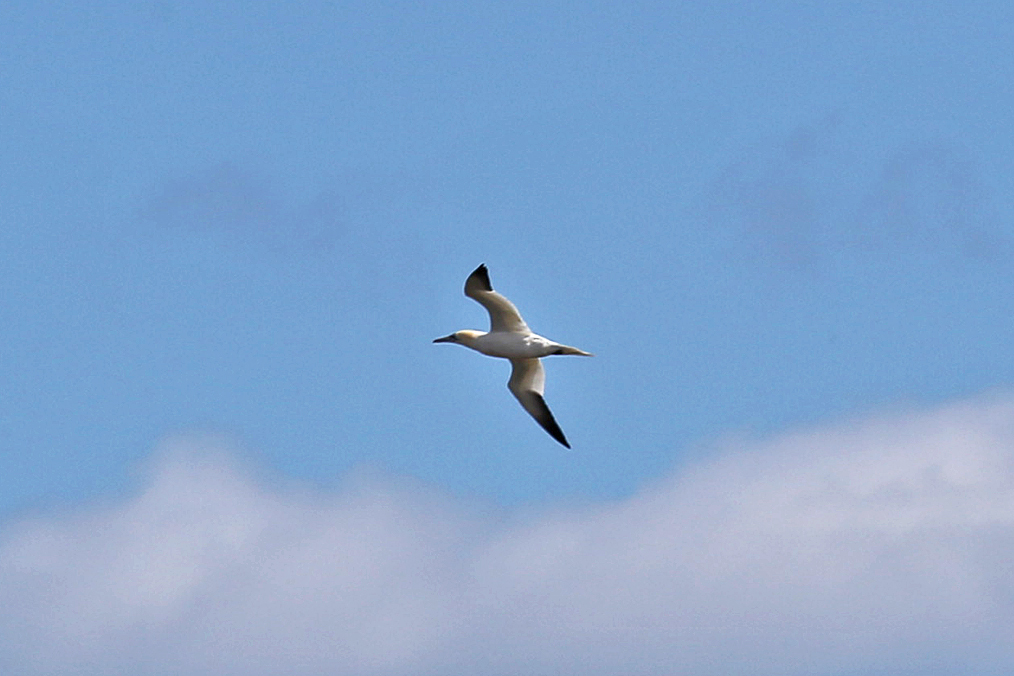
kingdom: Animalia
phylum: Chordata
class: Aves
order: Suliformes
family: Sulidae
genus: Morus
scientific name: Morus bassanus
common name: Northern gannet
